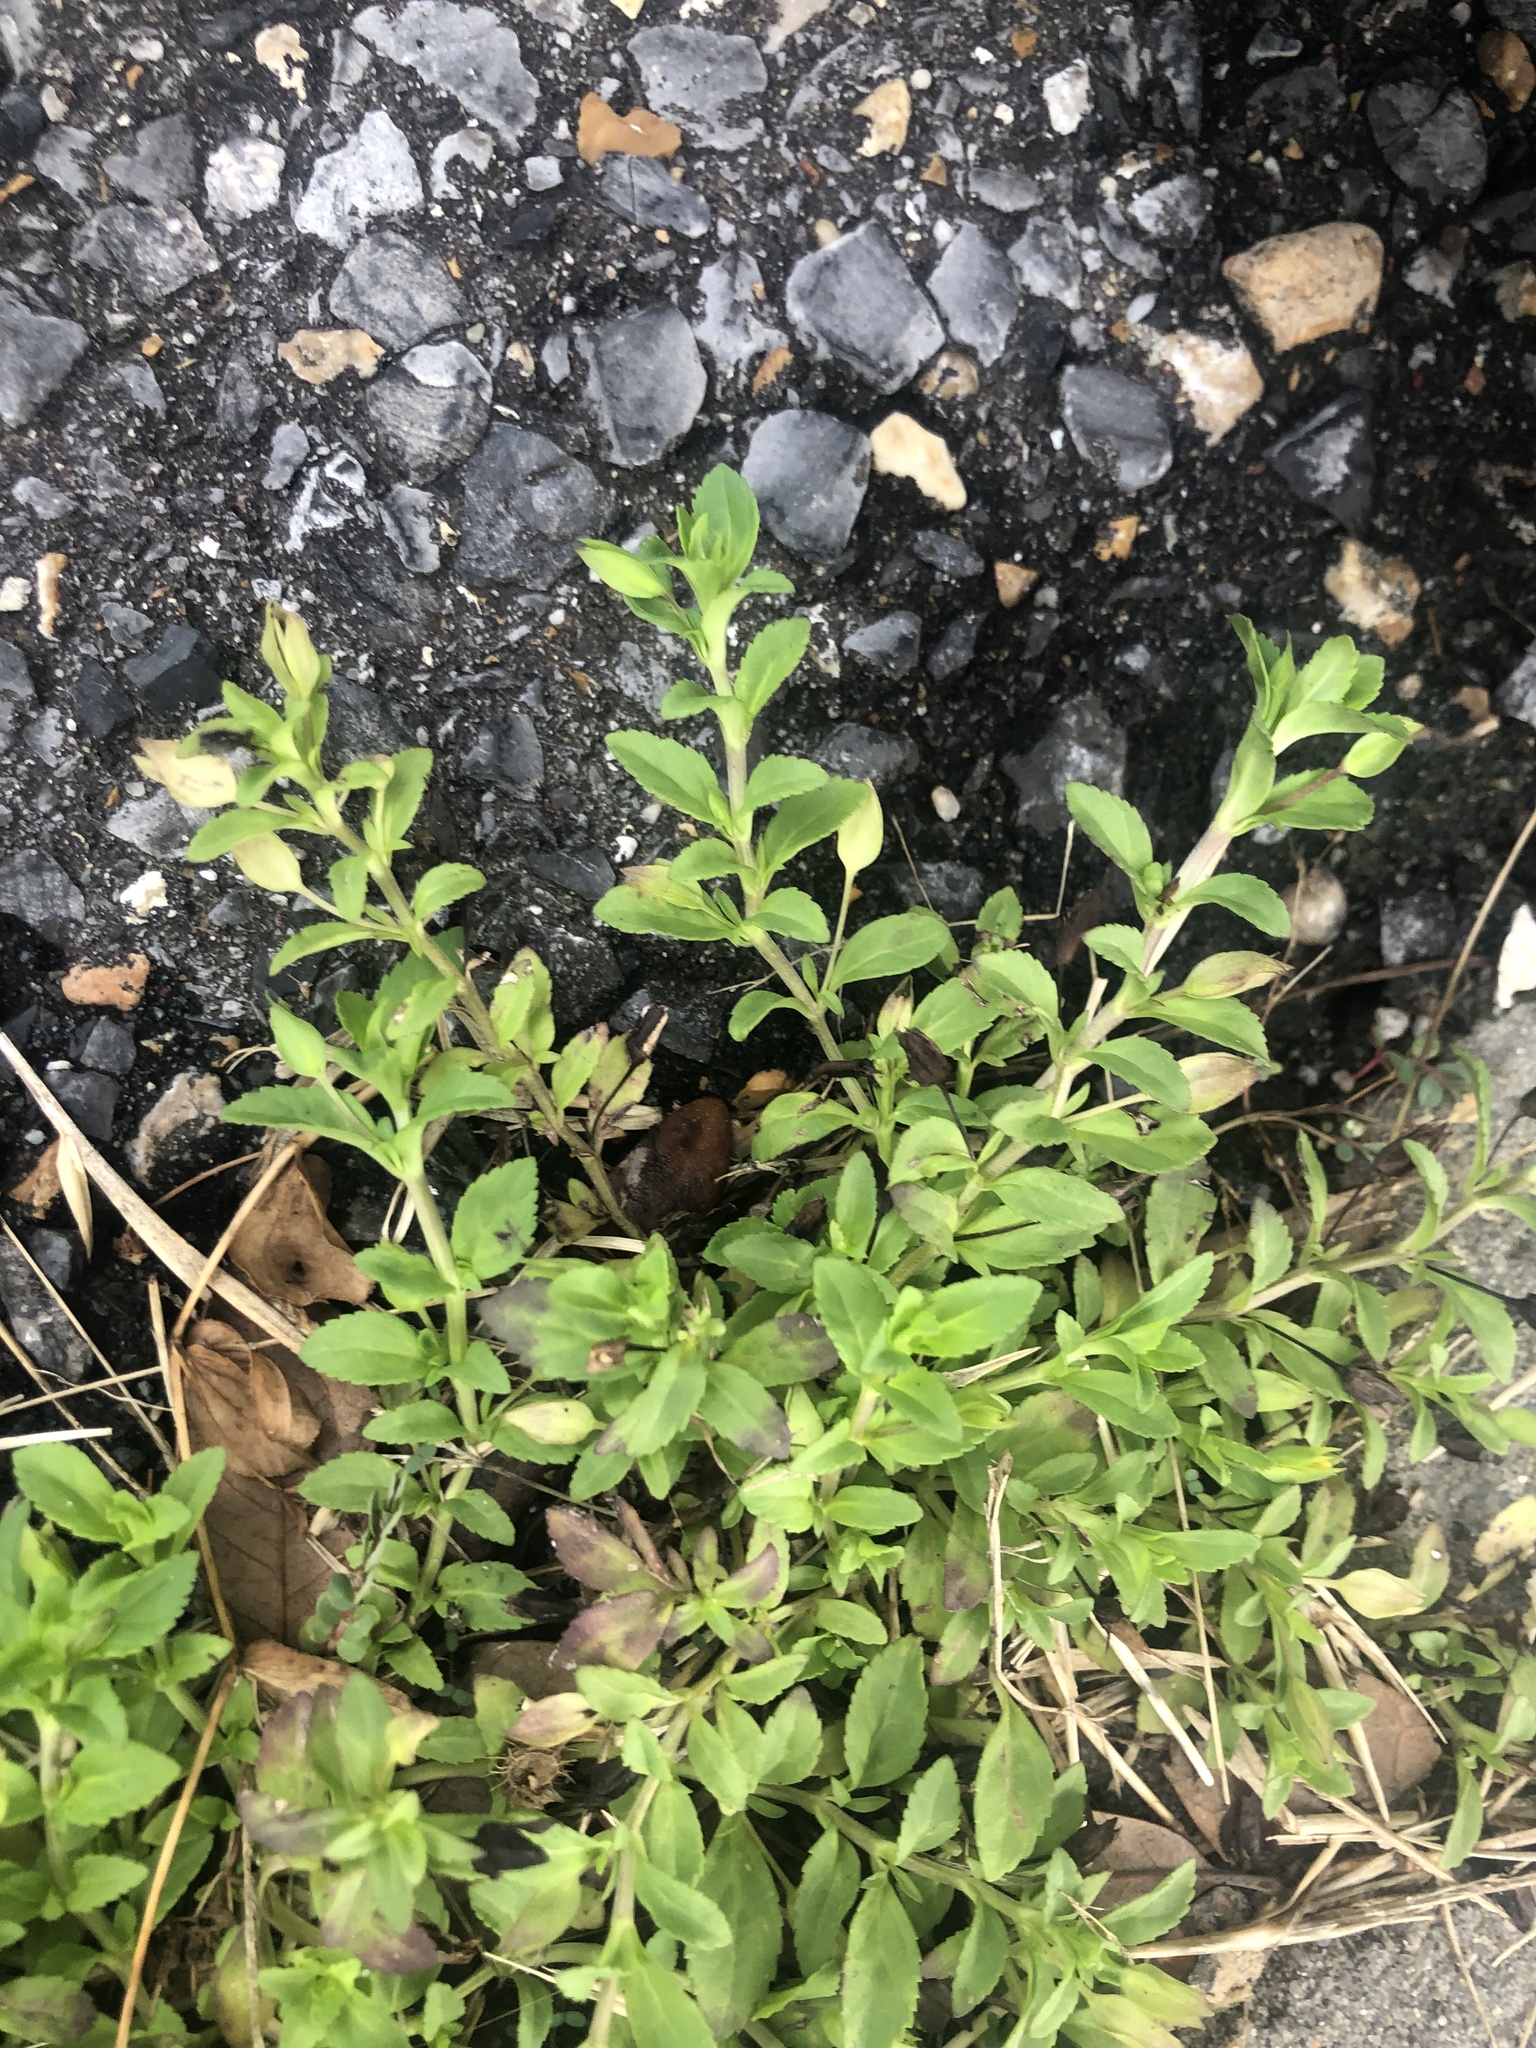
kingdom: Plantae
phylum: Tracheophyta
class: Magnoliopsida
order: Lamiales
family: Plantaginaceae
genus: Mecardonia
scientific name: Mecardonia procumbens
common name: Baby jump-up
